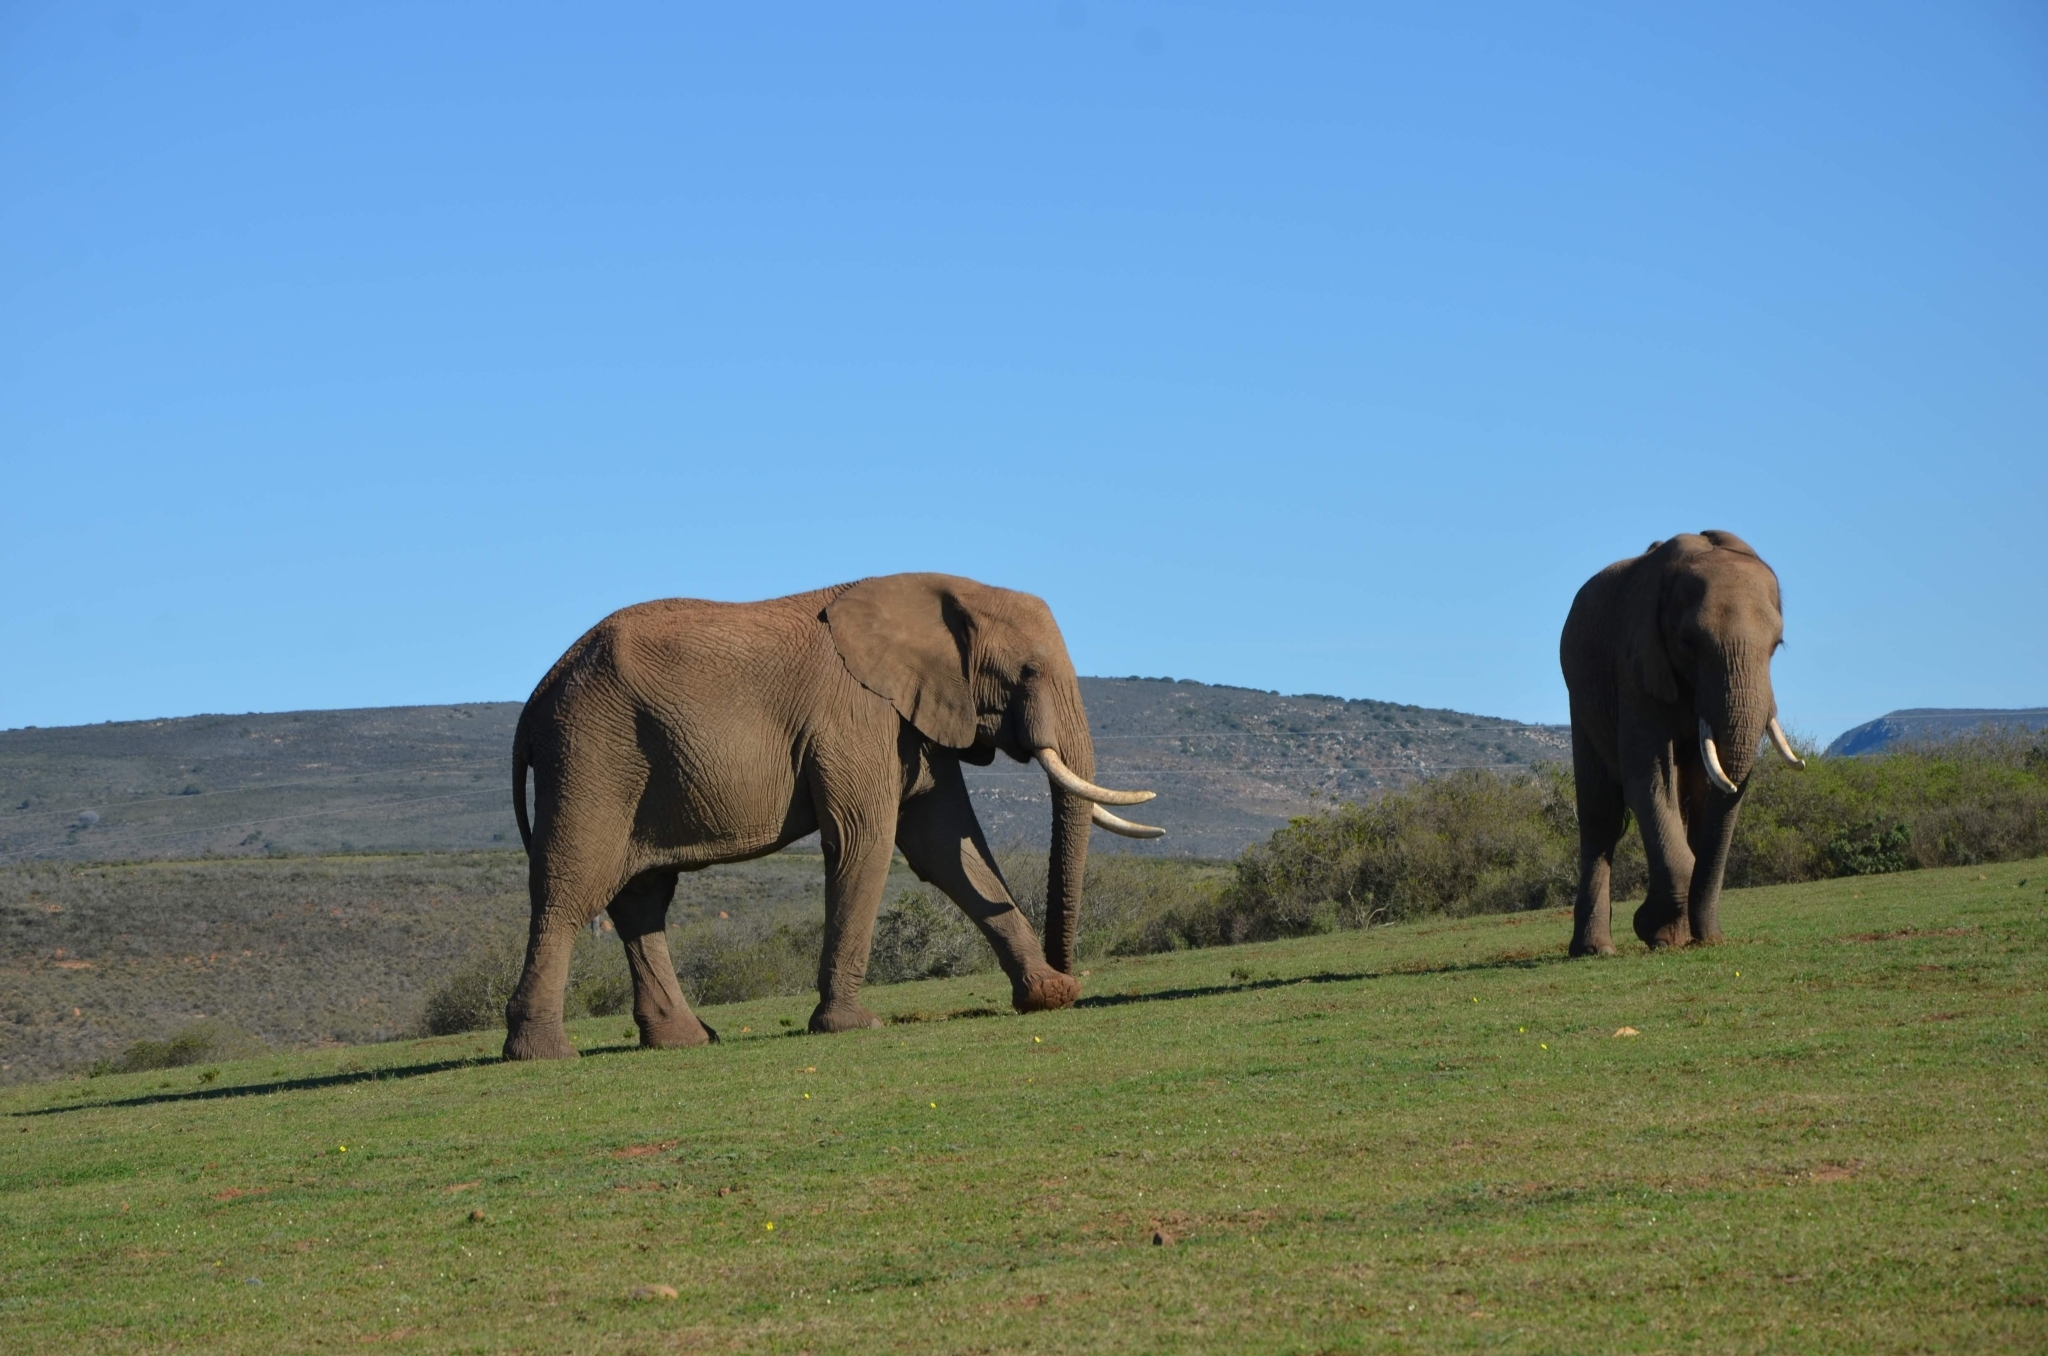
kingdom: Animalia
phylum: Chordata
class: Mammalia
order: Proboscidea
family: Elephantidae
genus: Loxodonta
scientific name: Loxodonta africana
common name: African elephant
